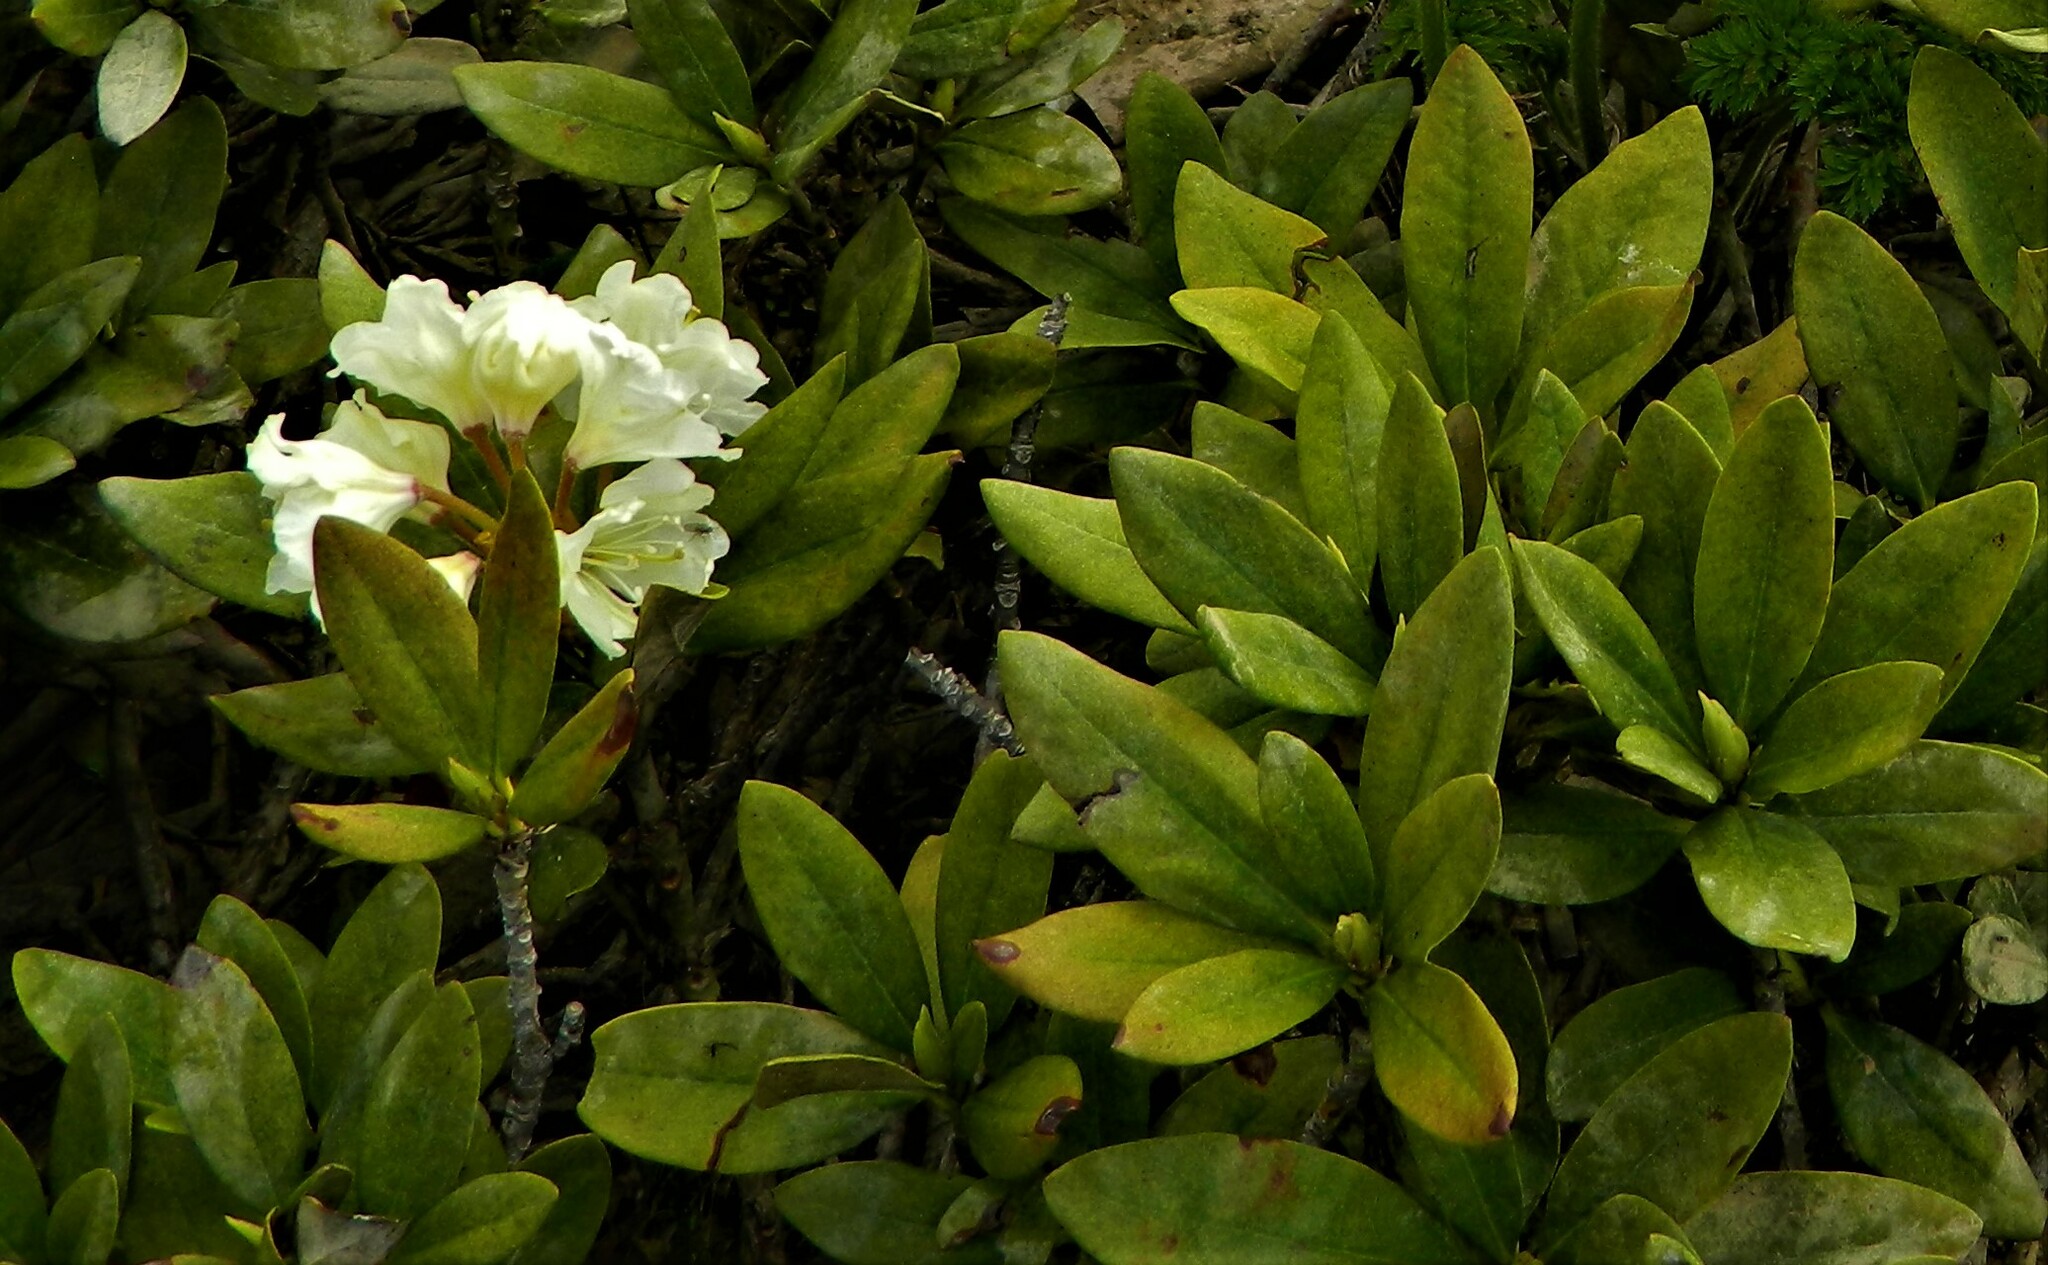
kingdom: Plantae
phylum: Tracheophyta
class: Magnoliopsida
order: Ericales
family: Ericaceae
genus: Rhododendron
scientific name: Rhododendron caucasicum
